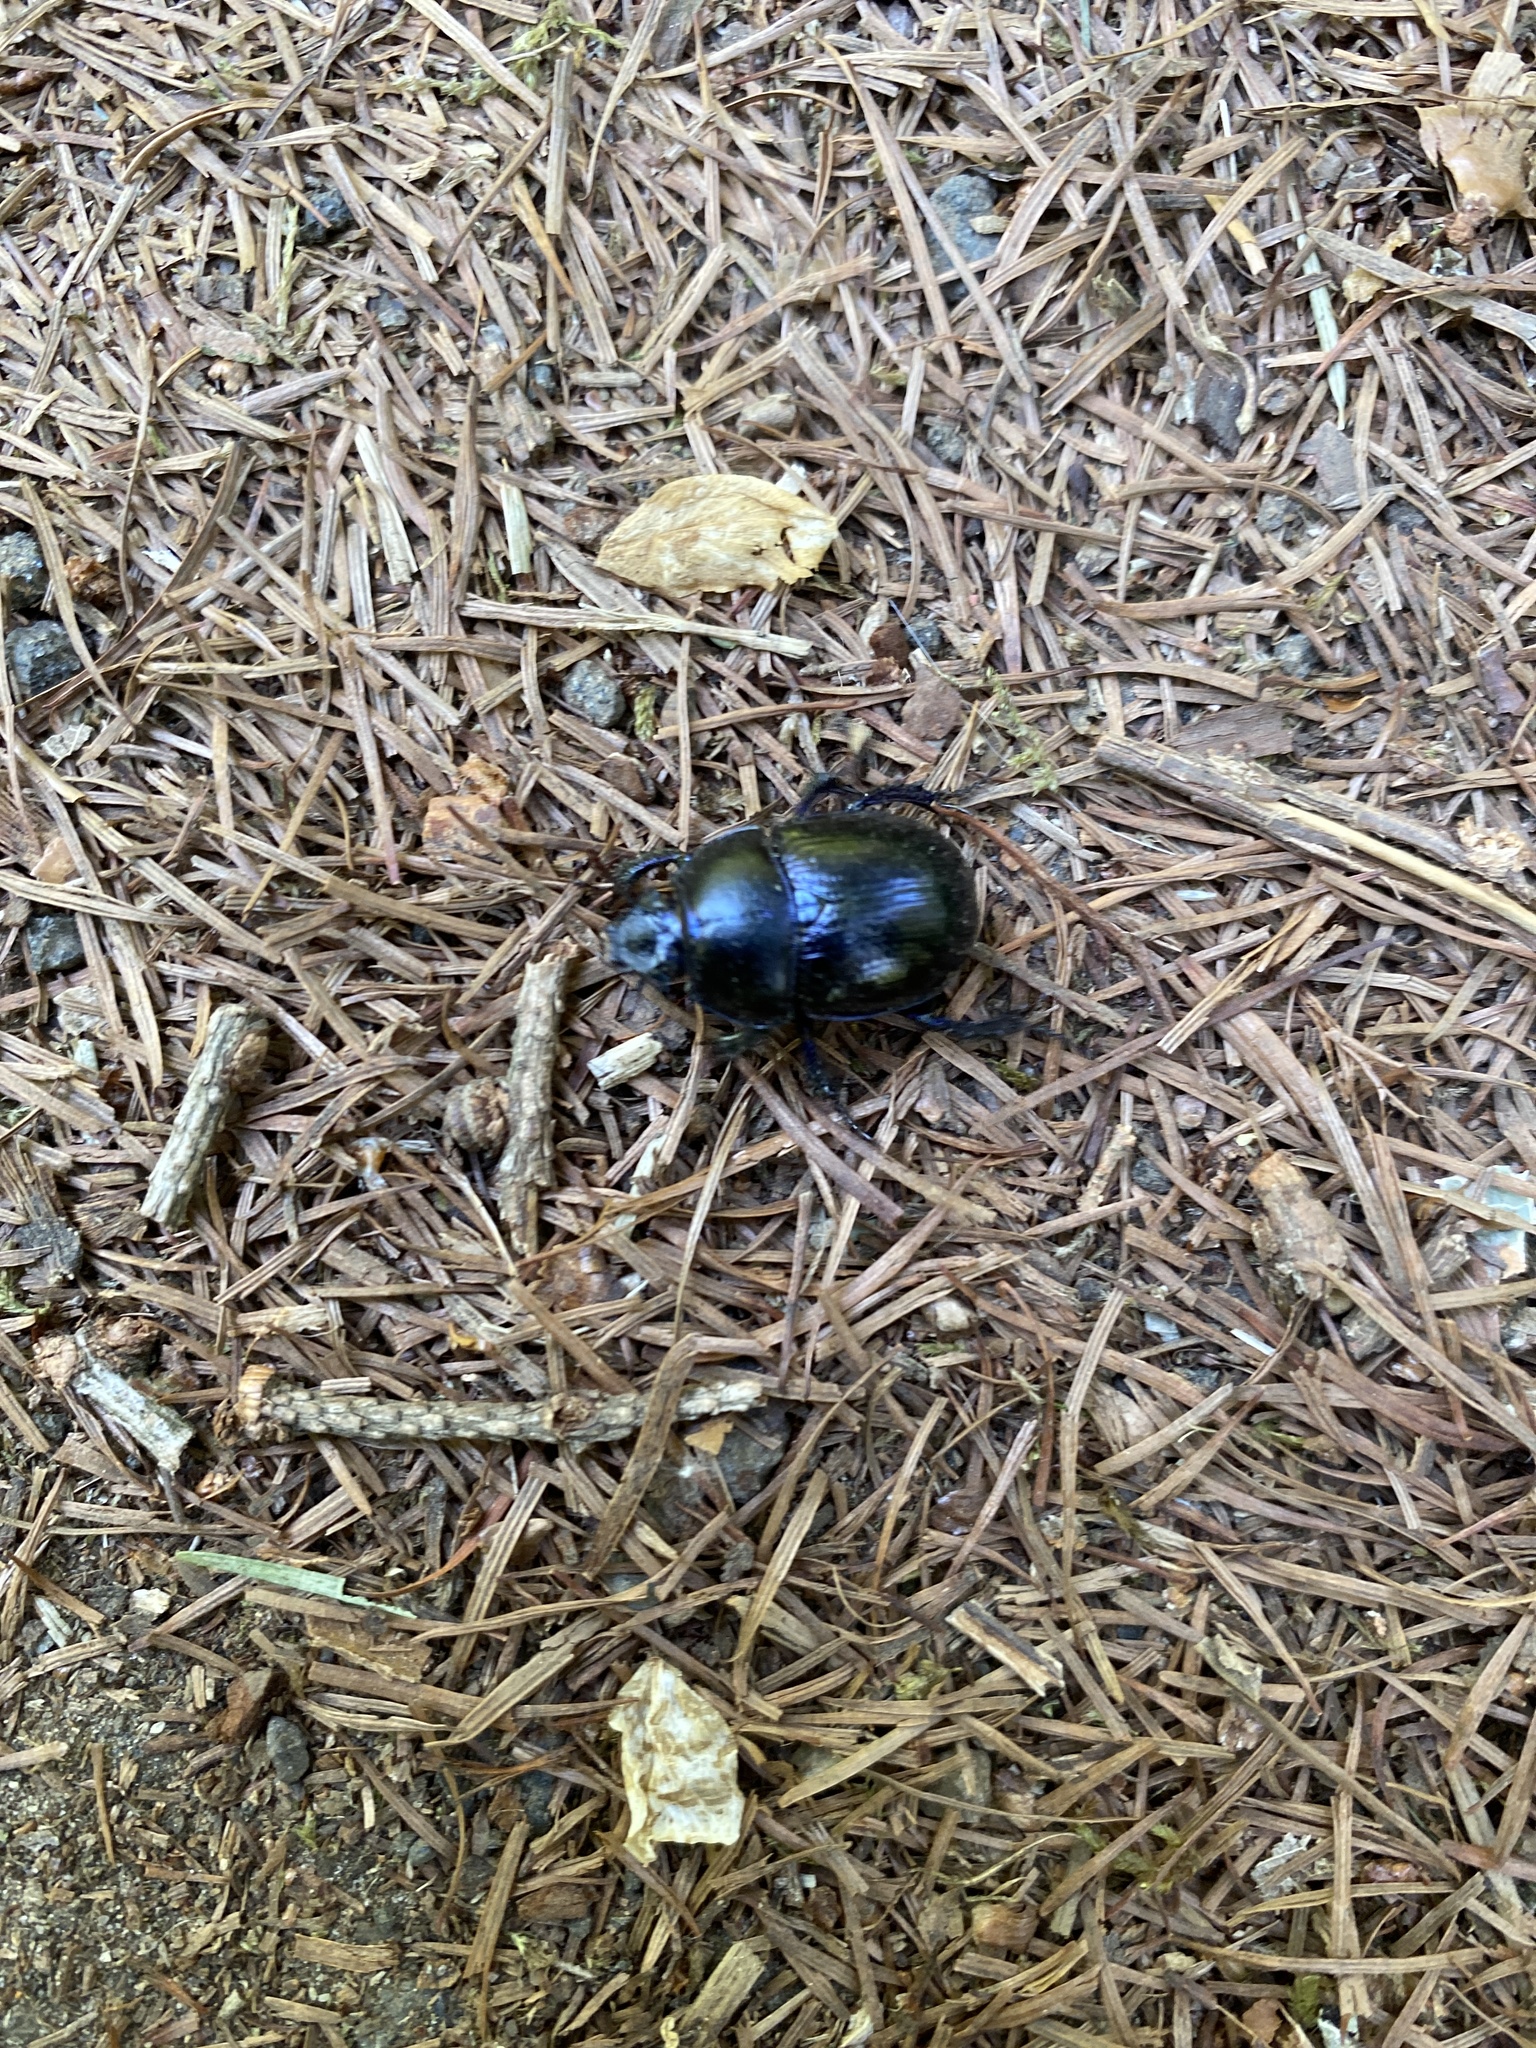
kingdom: Animalia
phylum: Arthropoda
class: Insecta
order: Coleoptera
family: Geotrupidae
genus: Anoplotrupes
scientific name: Anoplotrupes stercorosus
